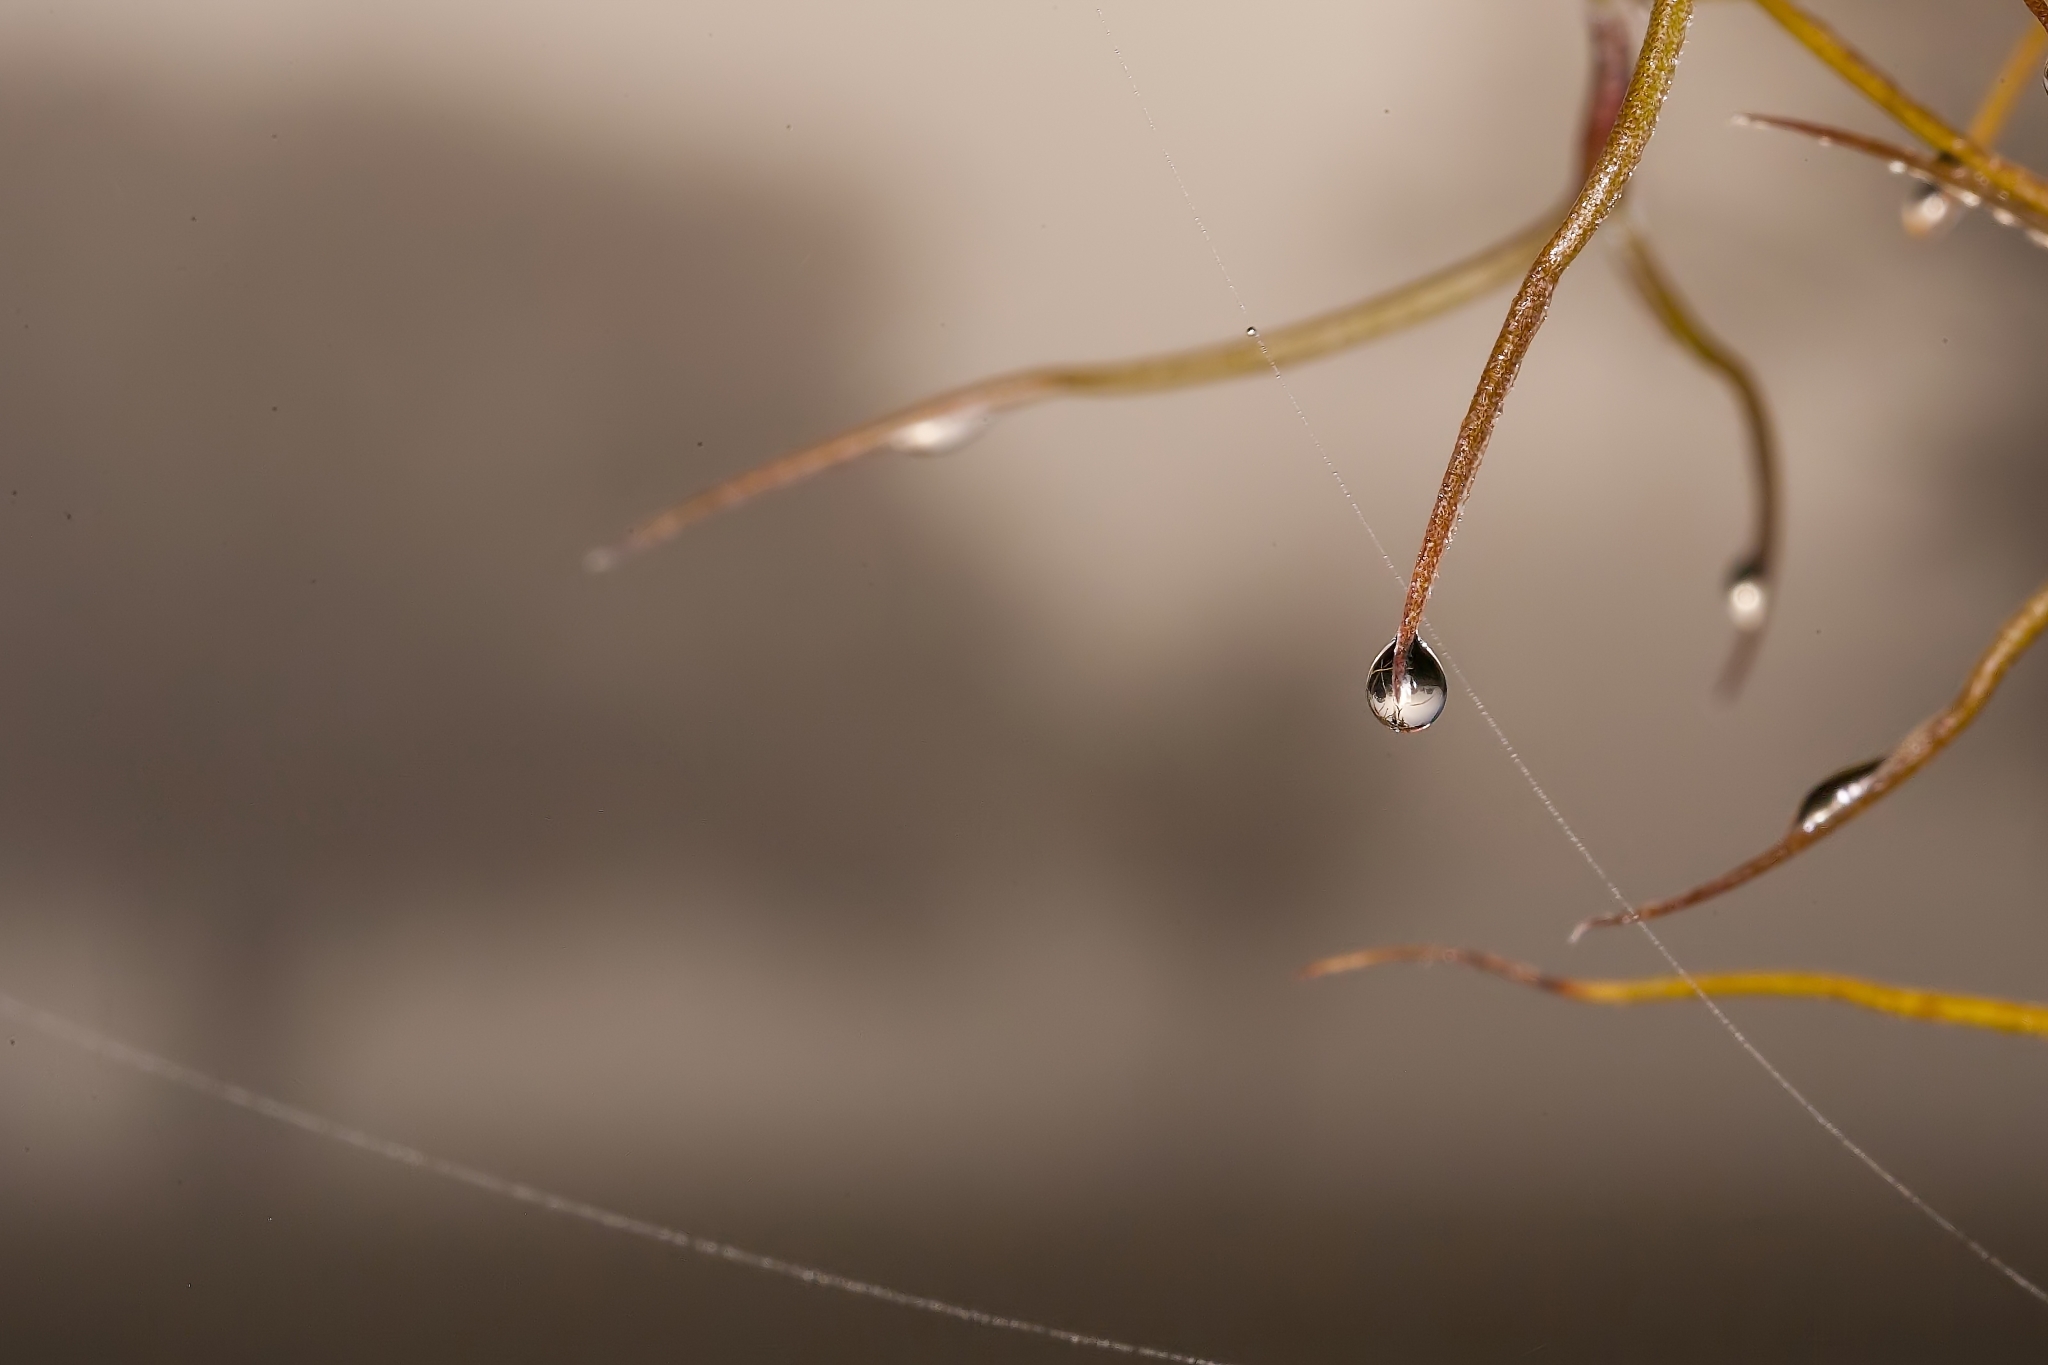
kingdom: Plantae
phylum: Tracheophyta
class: Liliopsida
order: Poales
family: Bromeliaceae
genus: Tillandsia
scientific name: Tillandsia usneoides
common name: Spanish moss
